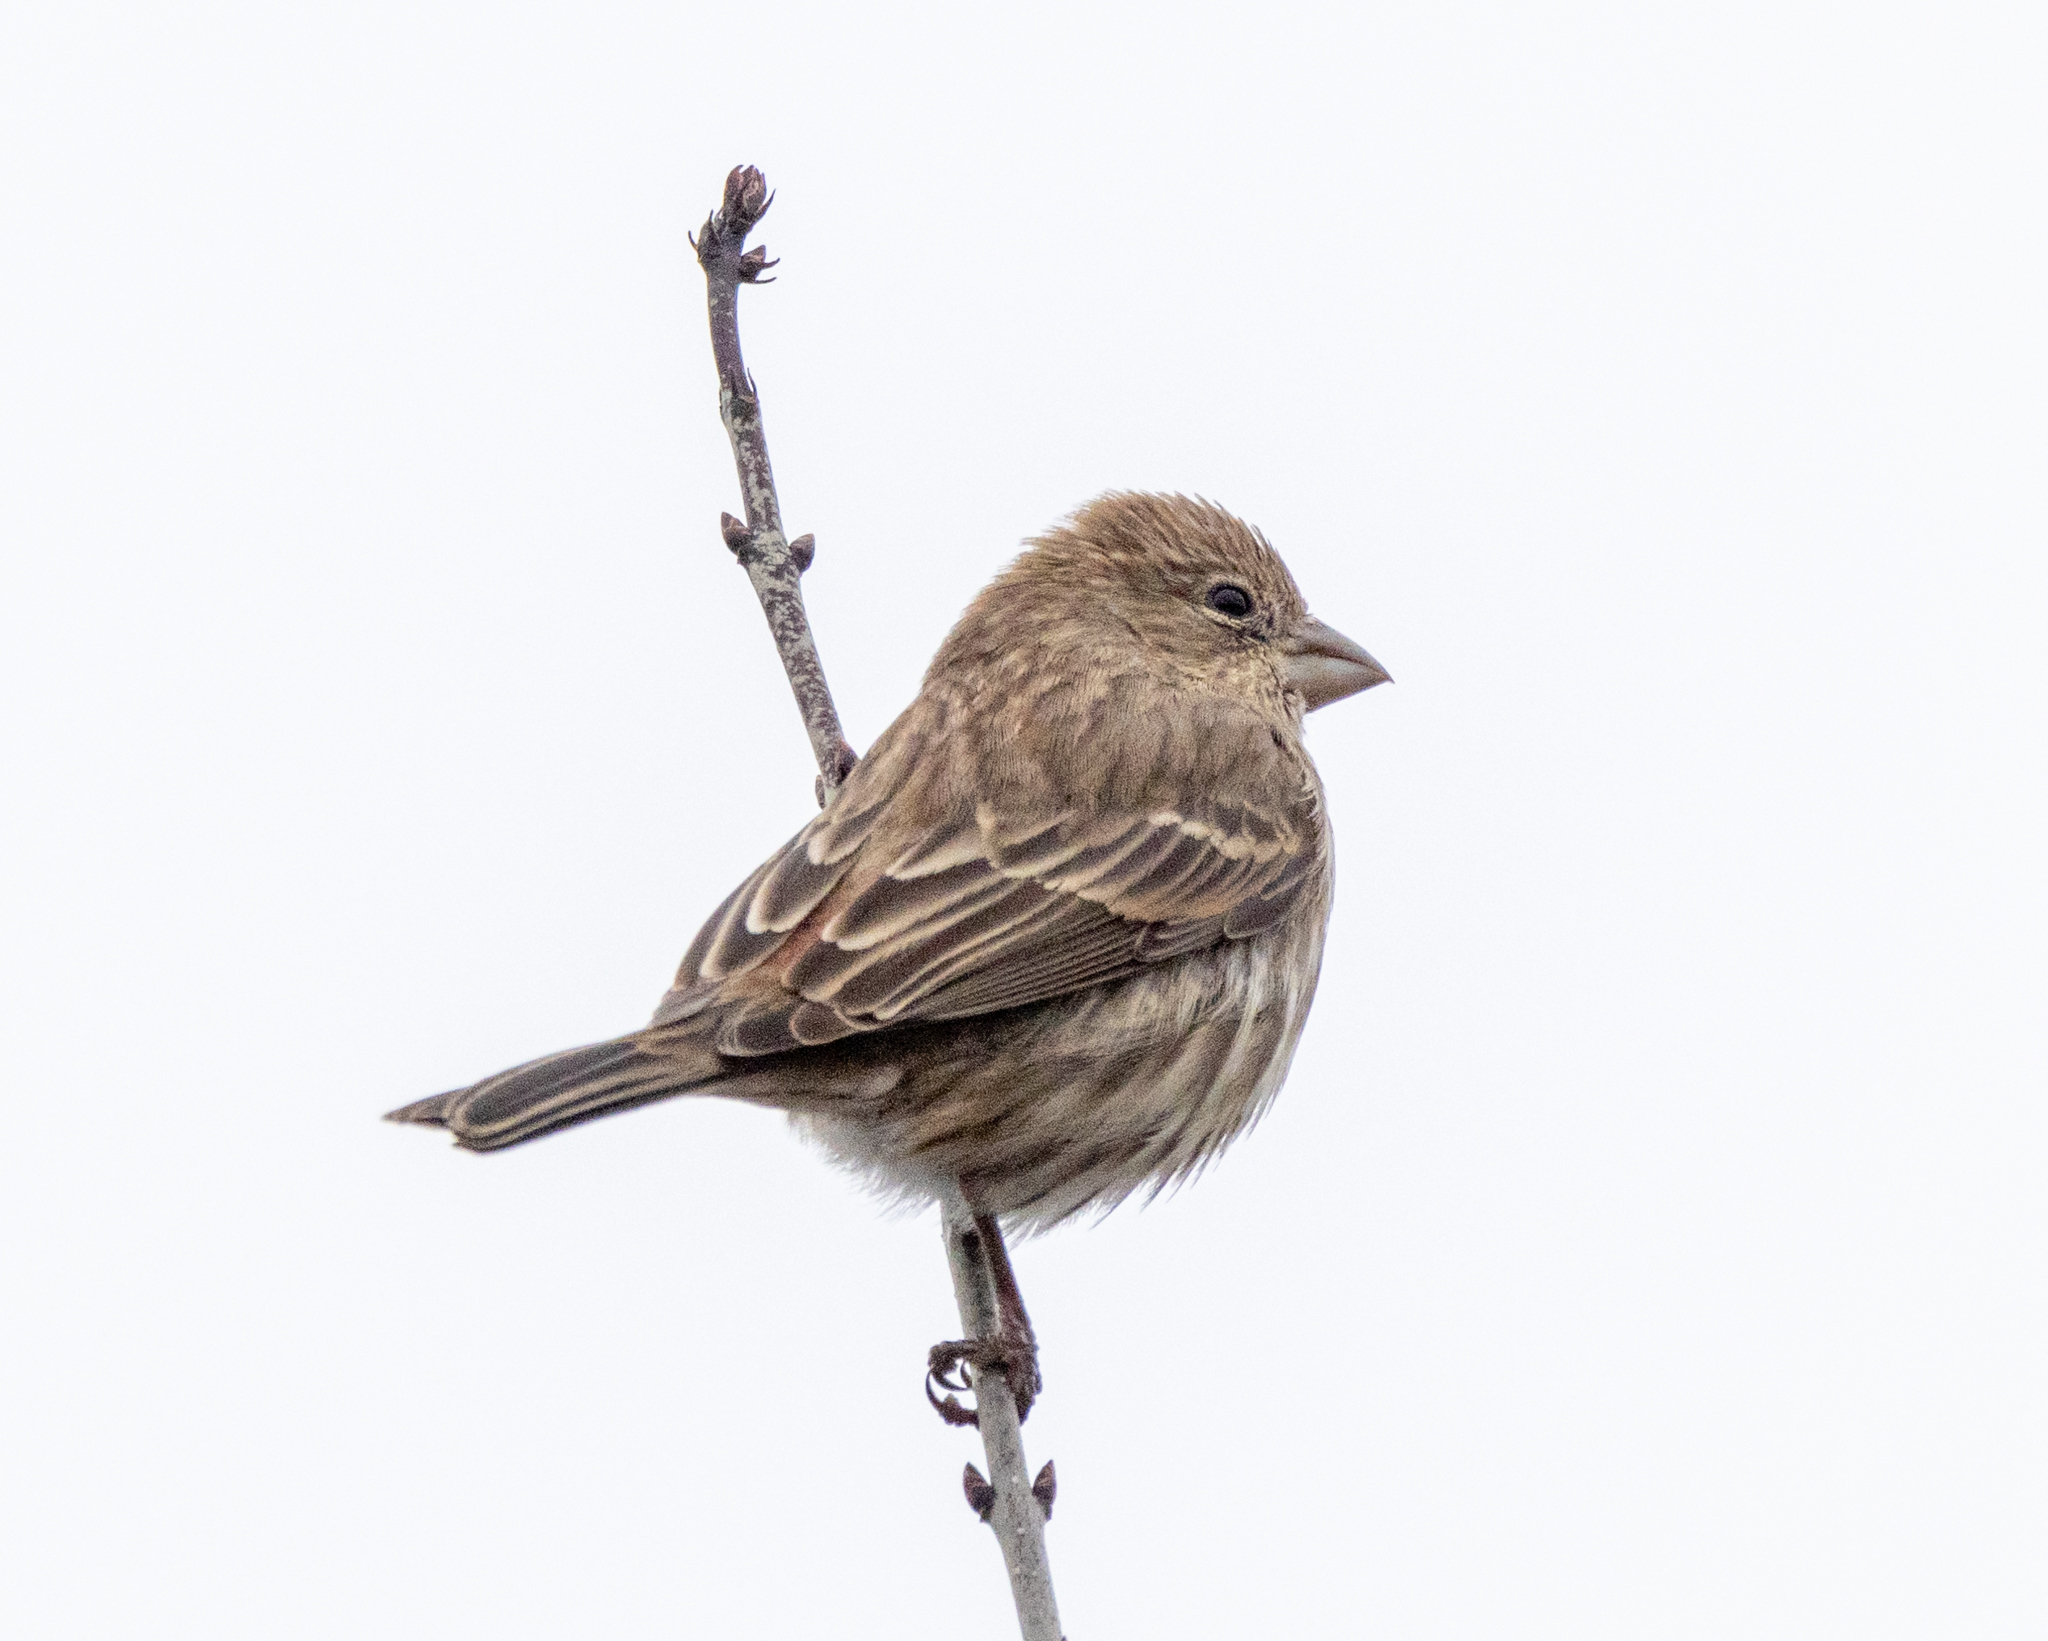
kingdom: Animalia
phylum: Chordata
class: Aves
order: Passeriformes
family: Fringillidae
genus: Haemorhous
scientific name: Haemorhous mexicanus
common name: House finch
